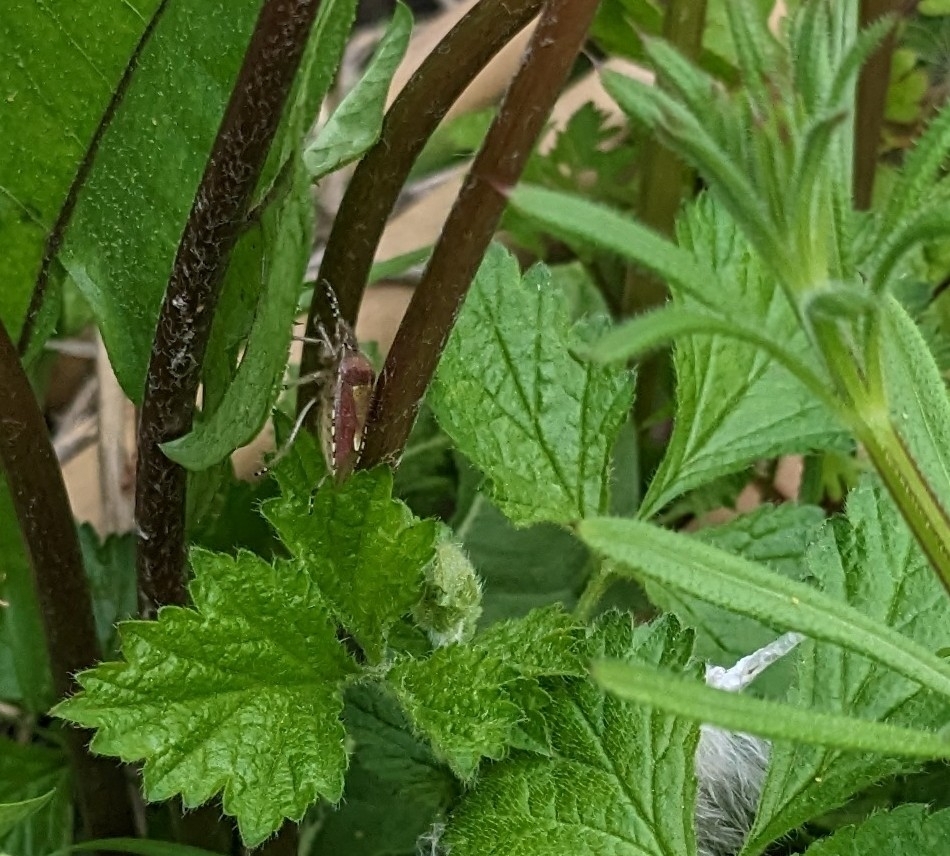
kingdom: Animalia
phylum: Arthropoda
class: Insecta
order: Hemiptera
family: Pentatomidae
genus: Dolycoris
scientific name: Dolycoris baccarum
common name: Sloe bug
